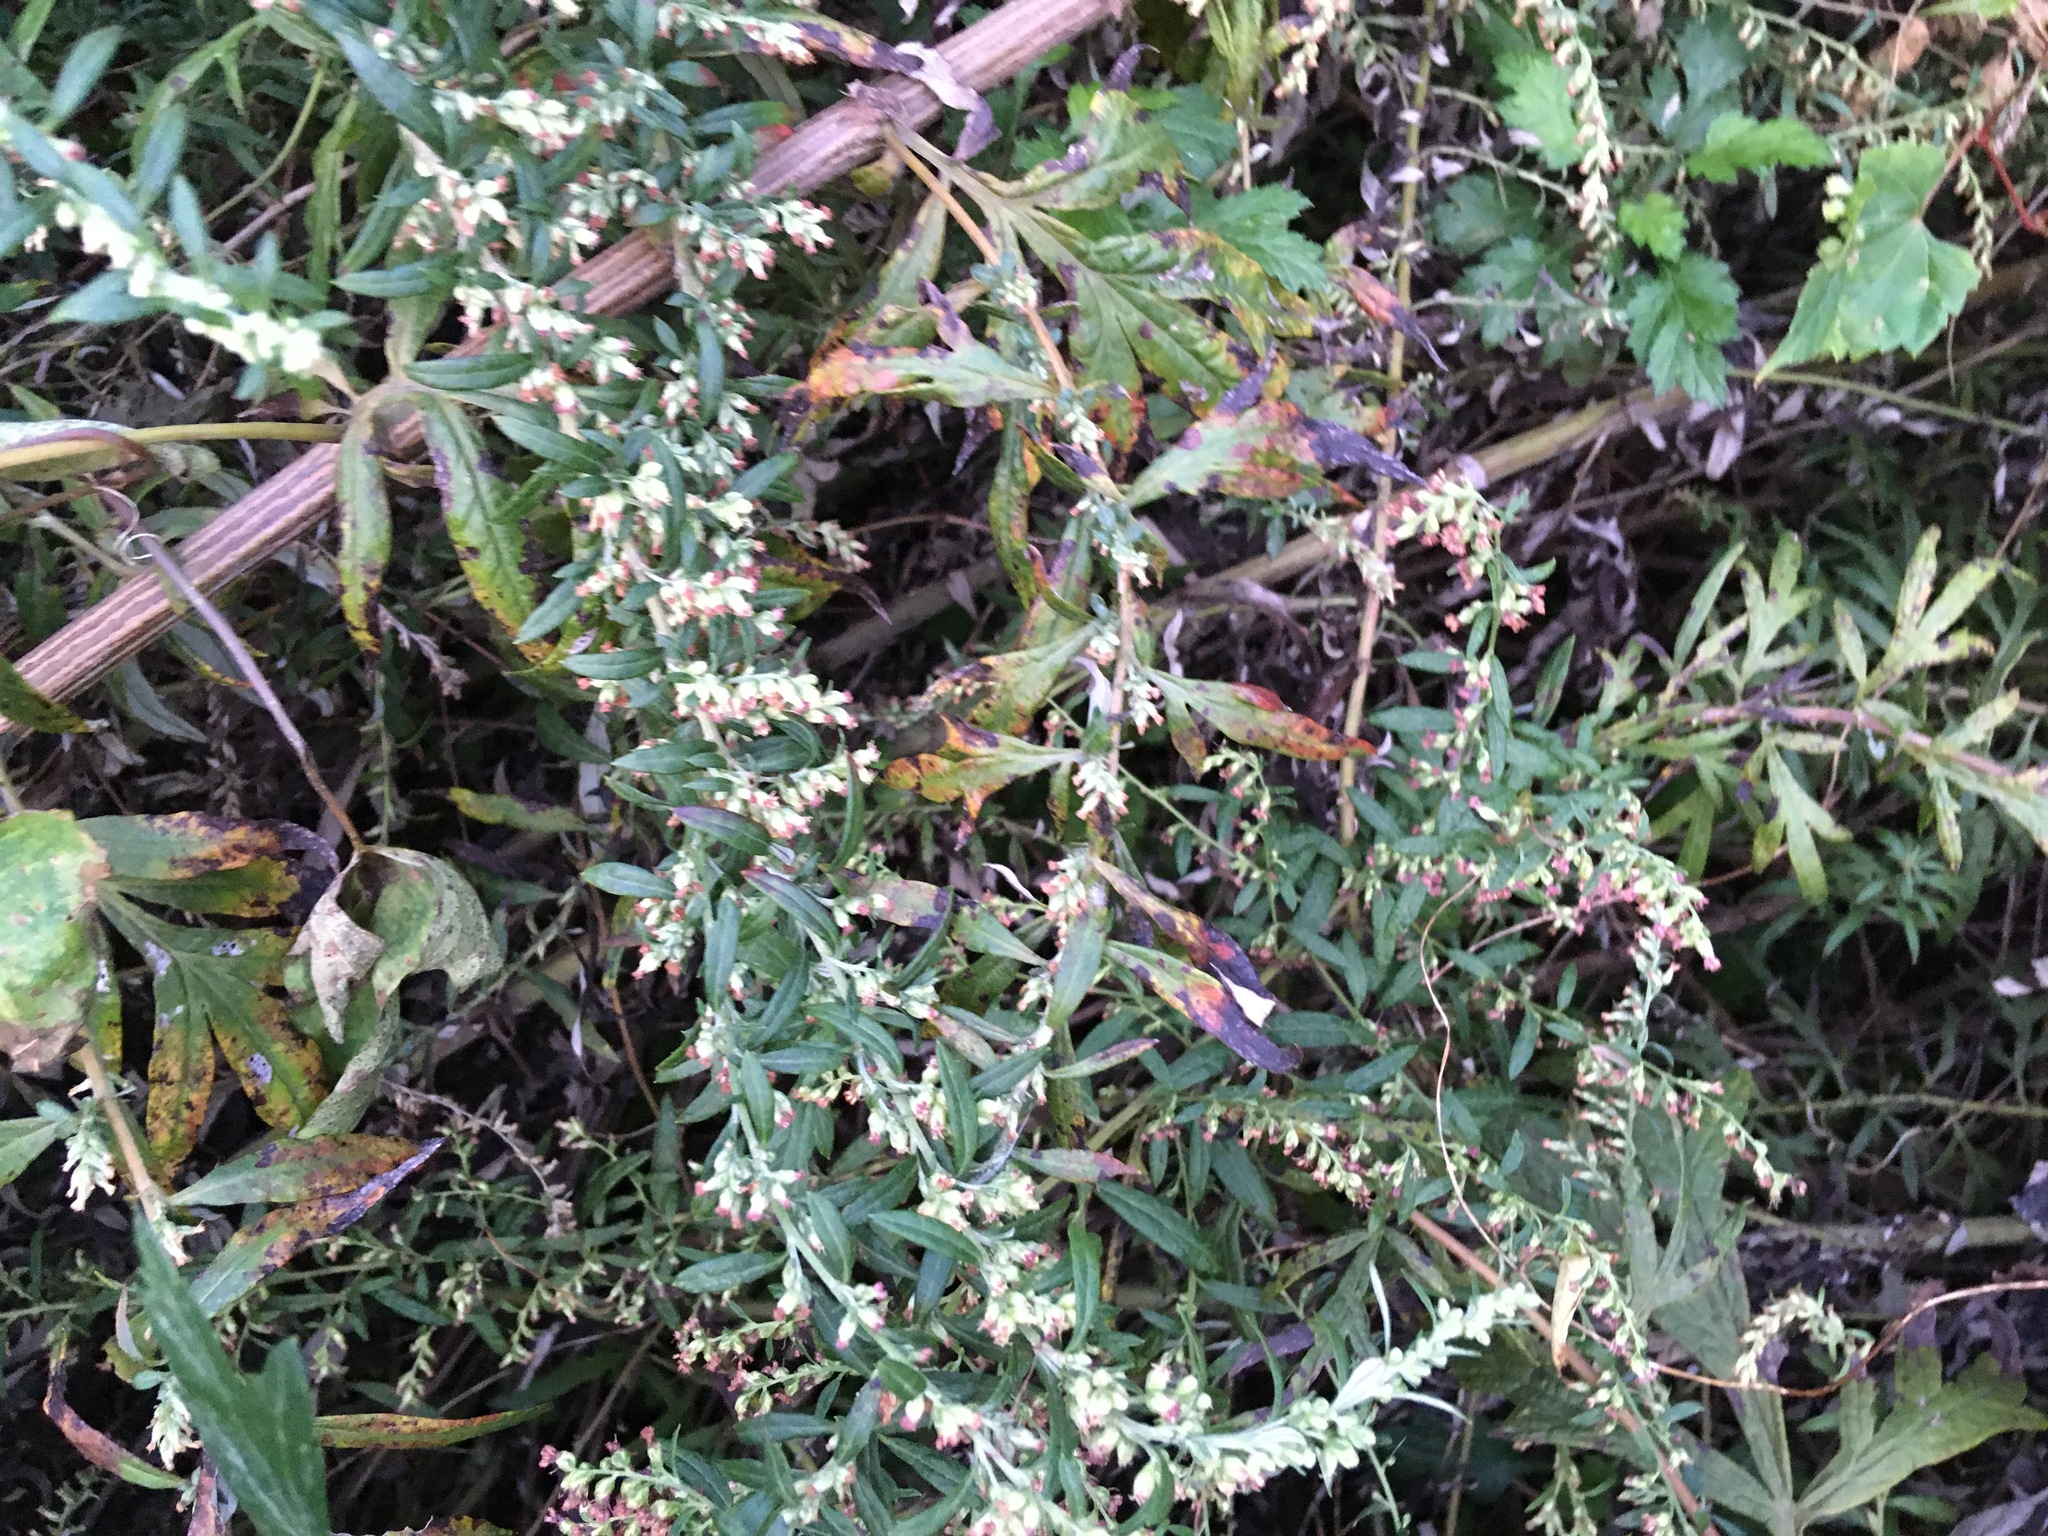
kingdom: Plantae
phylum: Tracheophyta
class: Magnoliopsida
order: Asterales
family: Asteraceae
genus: Artemisia
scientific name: Artemisia vulgaris
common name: Mugwort
